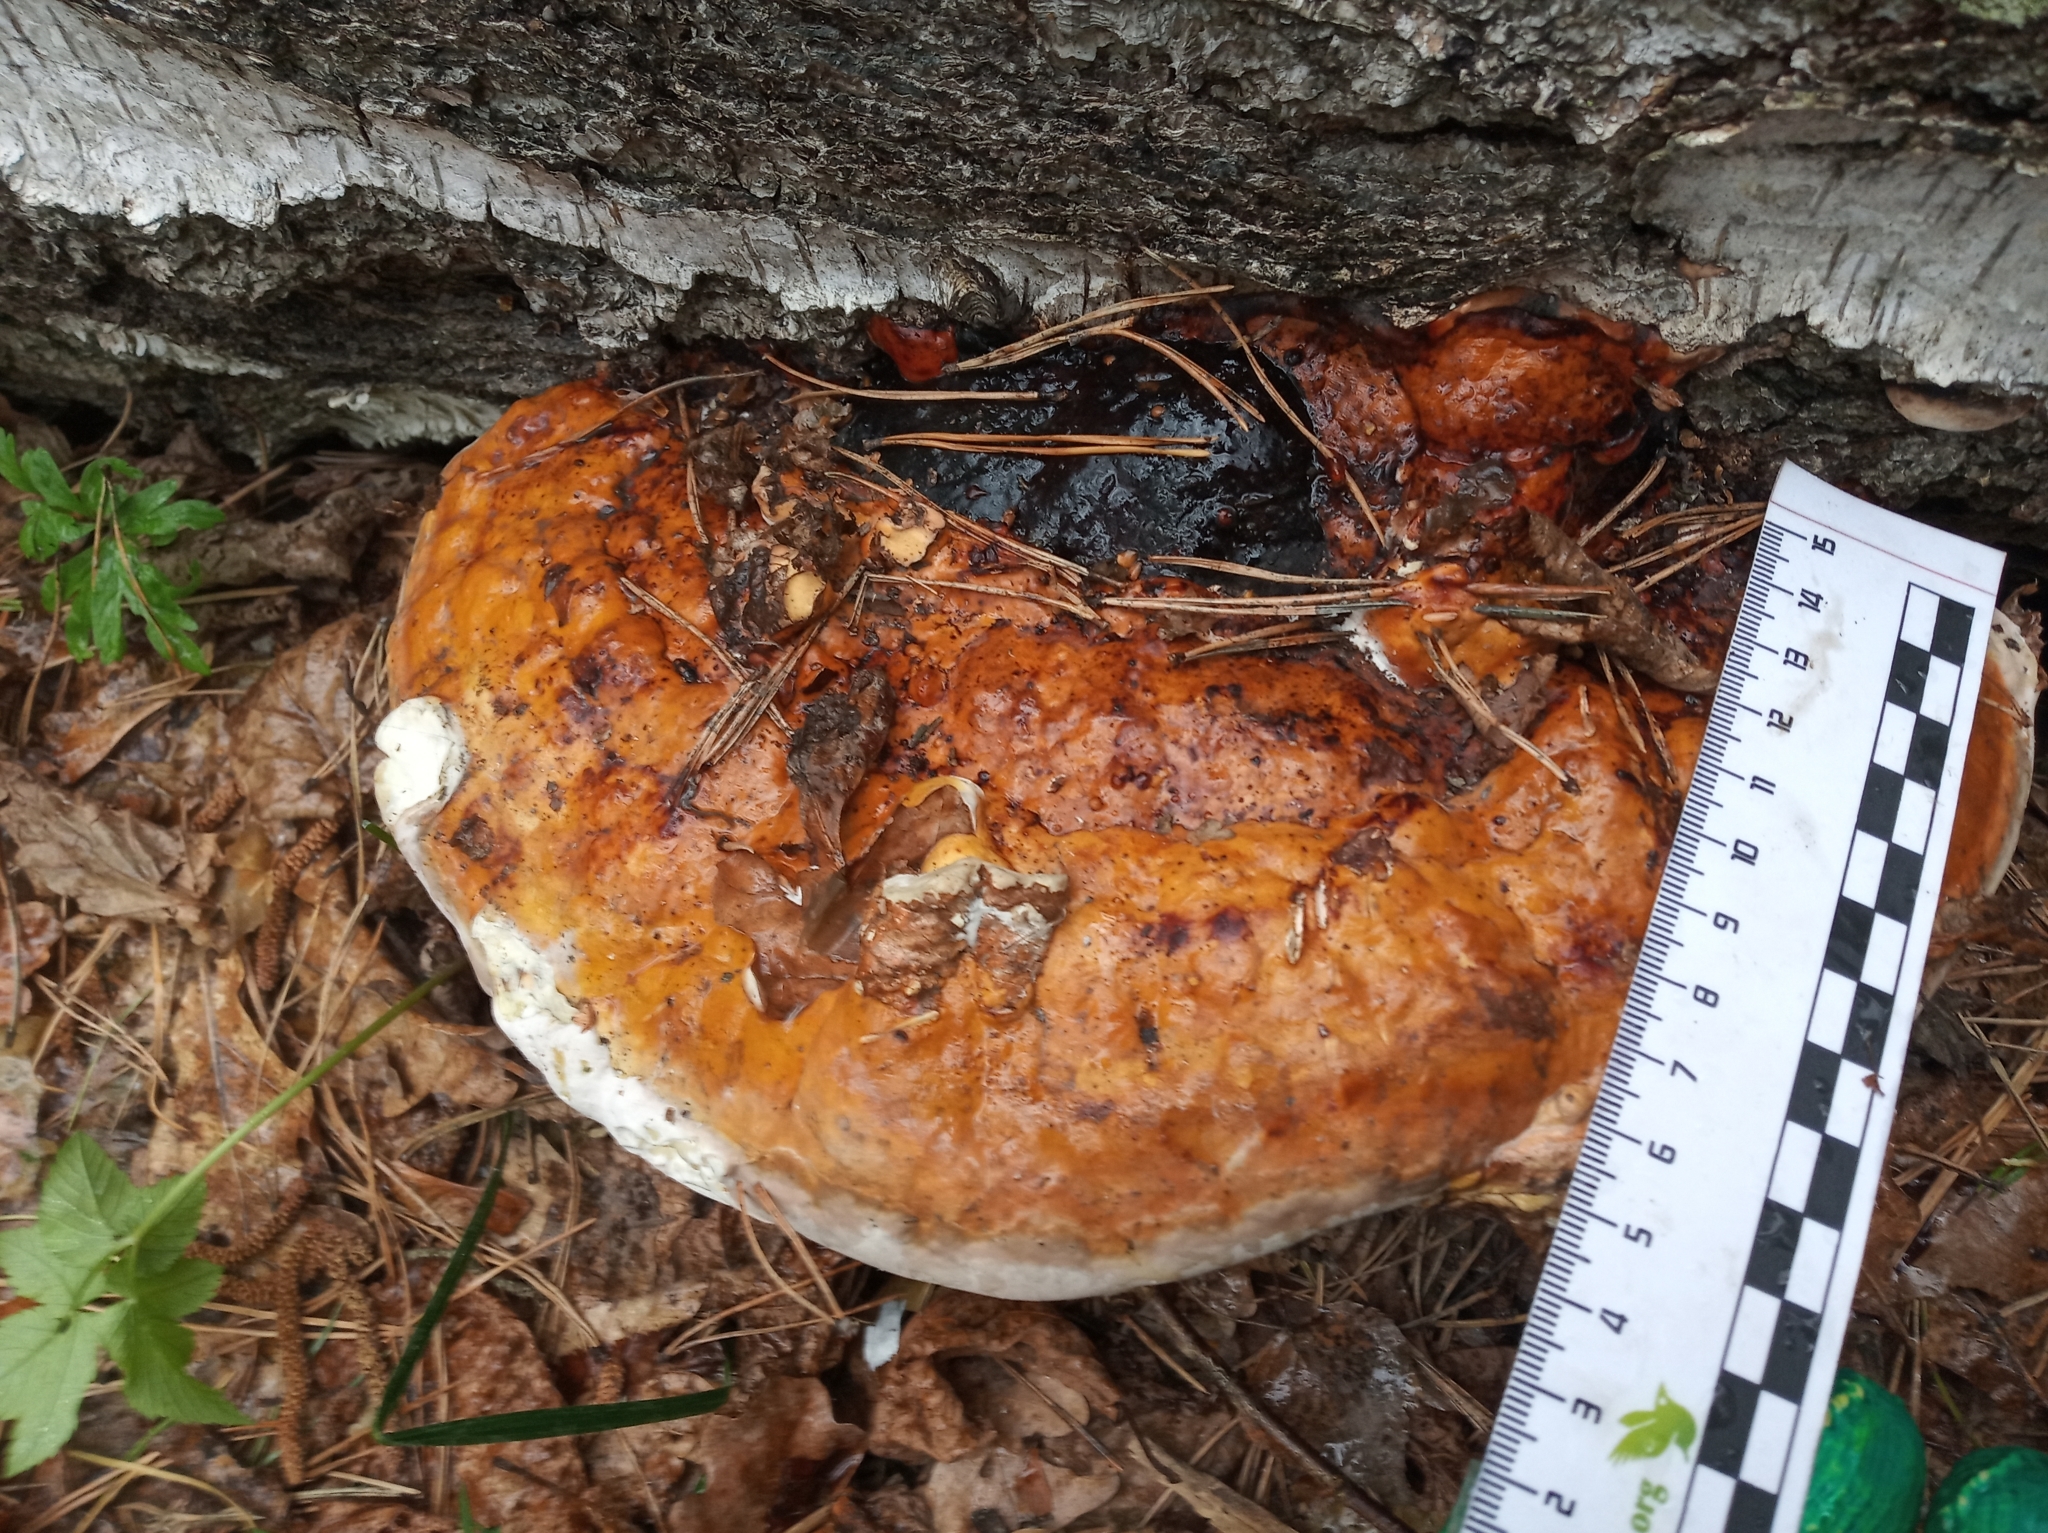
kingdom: Fungi
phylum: Basidiomycota
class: Agaricomycetes
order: Polyporales
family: Fomitopsidaceae
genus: Fomitopsis
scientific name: Fomitopsis pinicola
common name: Red-belted bracket
